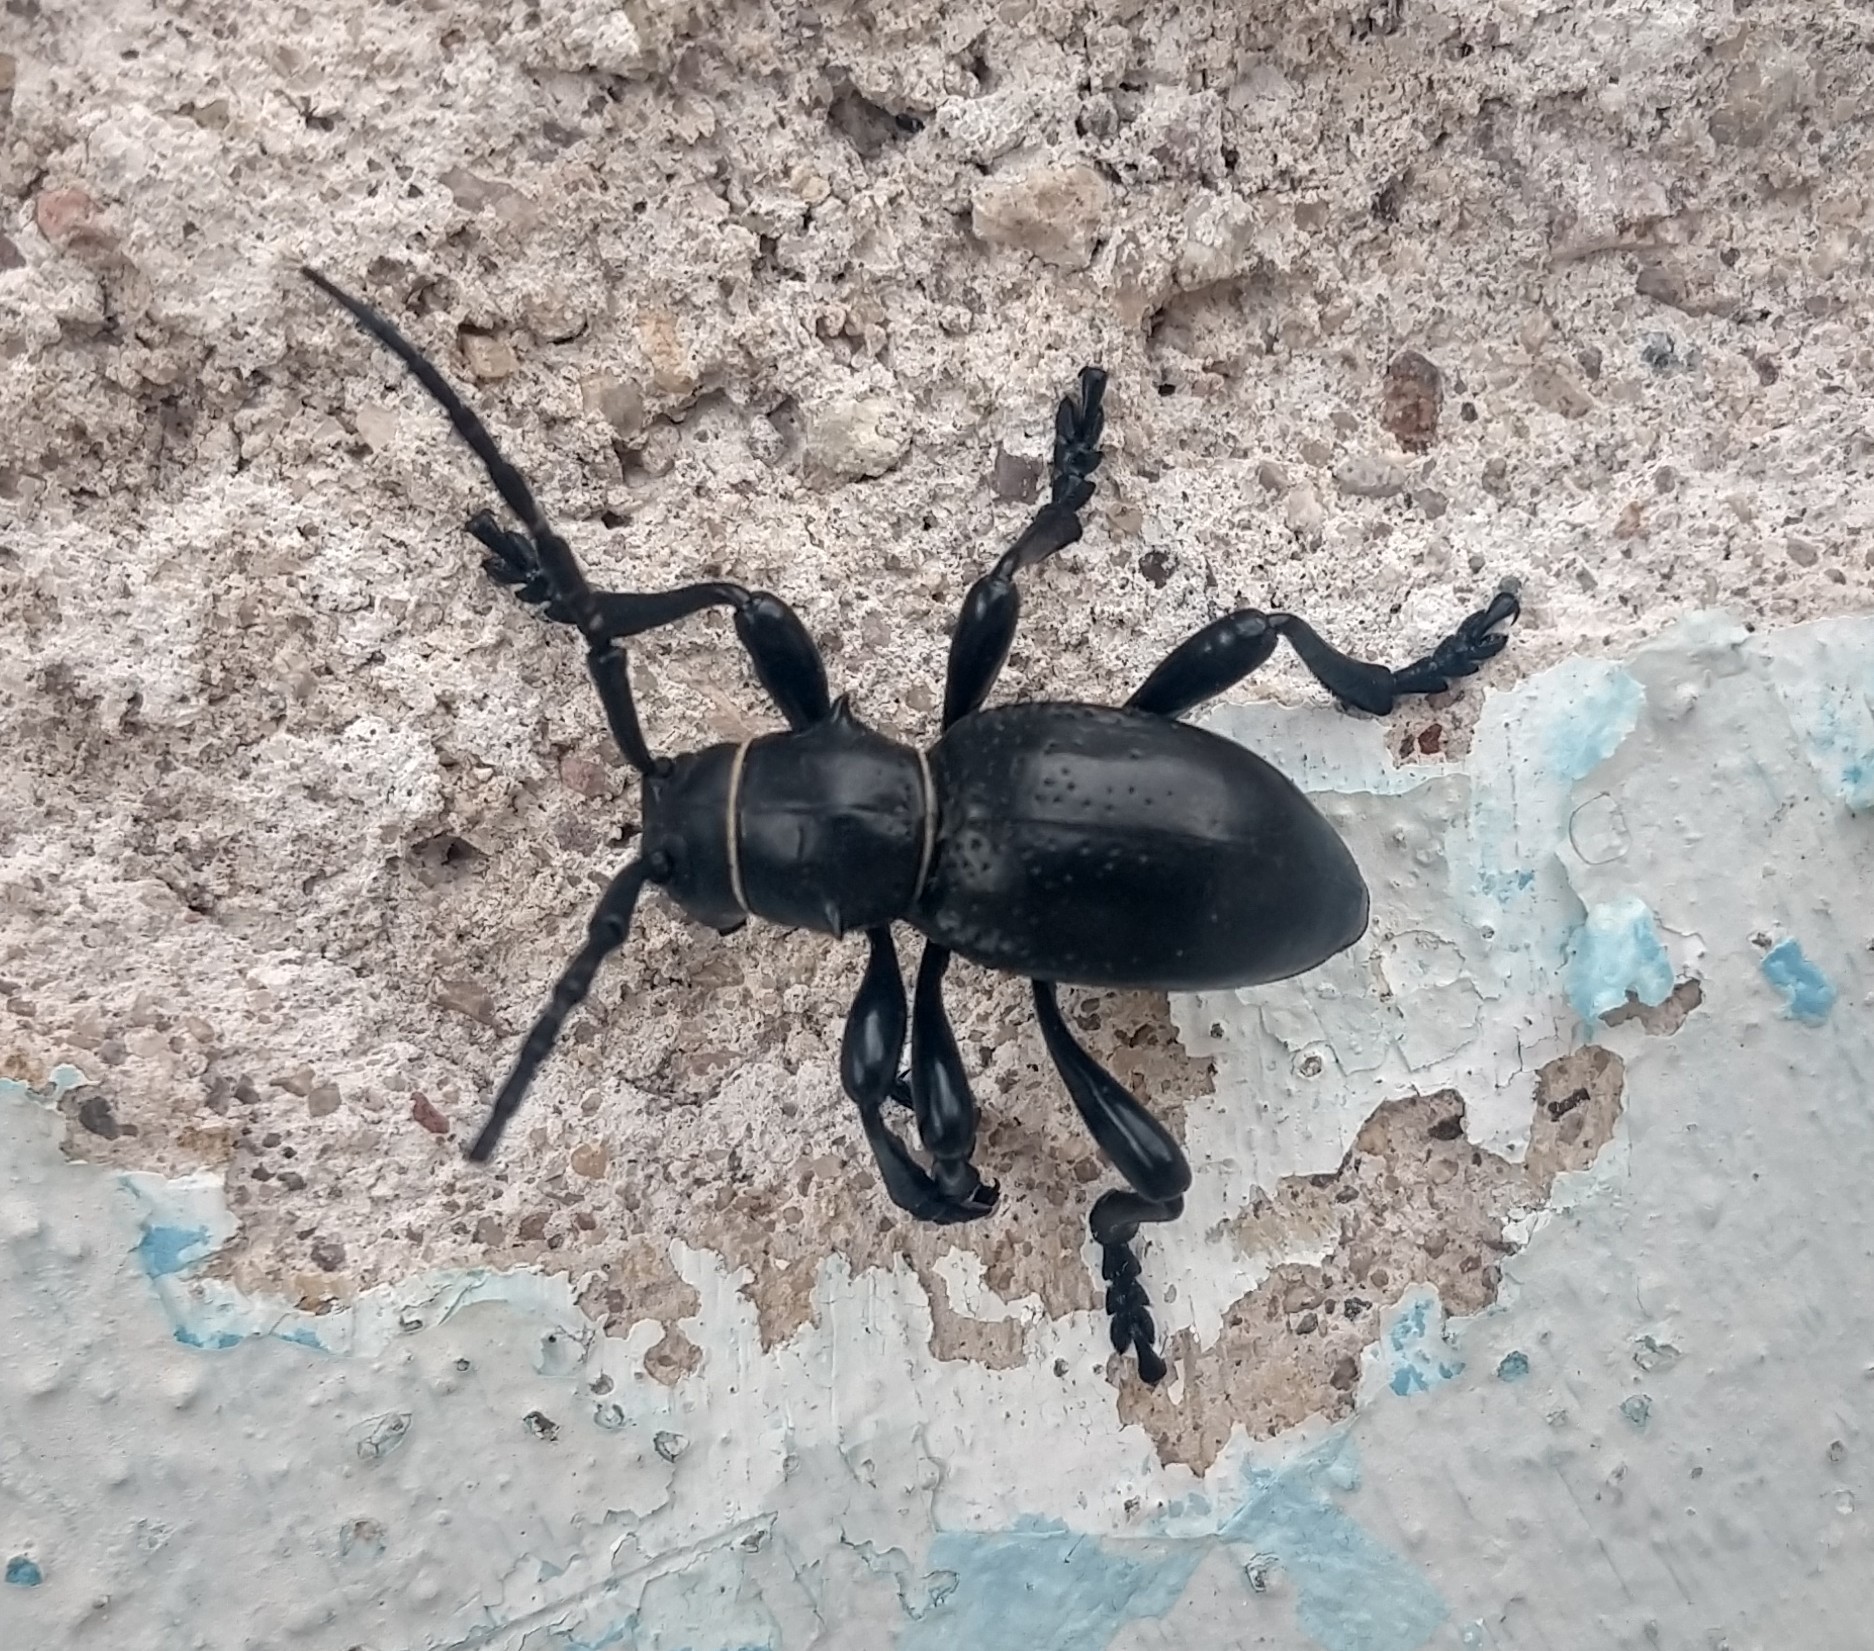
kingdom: Animalia
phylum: Arthropoda
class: Insecta
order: Coleoptera
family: Cerambycidae
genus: Moneilema
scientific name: Moneilema gigas
